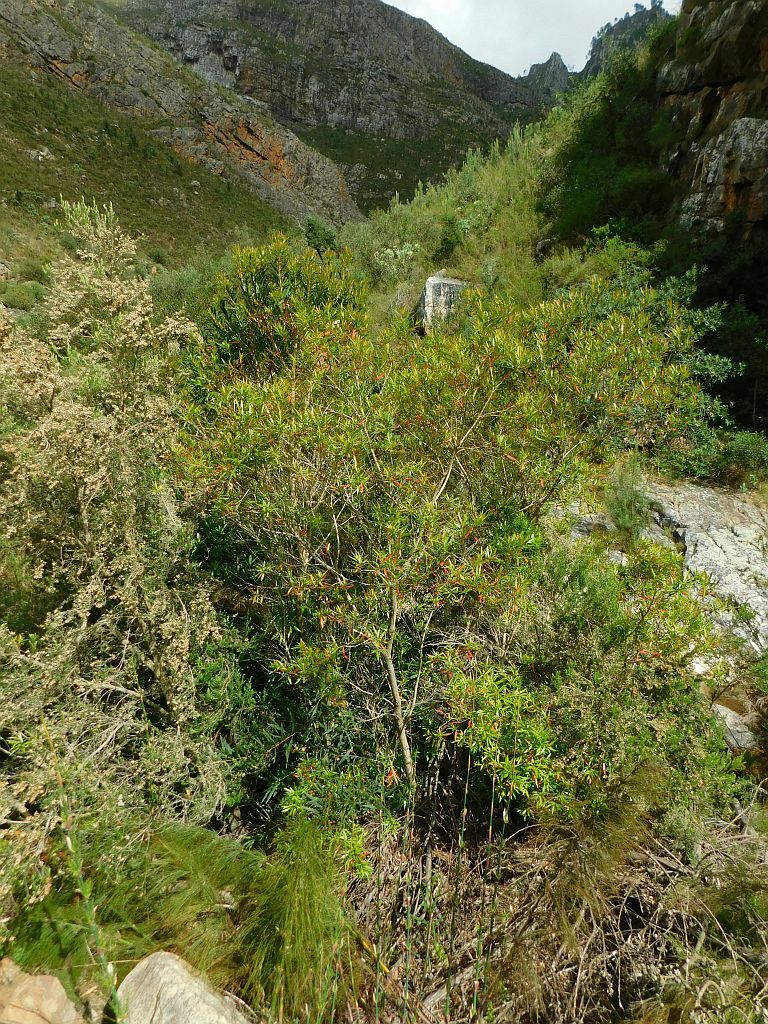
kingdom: Plantae
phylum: Tracheophyta
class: Magnoliopsida
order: Myrtales
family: Myrtaceae
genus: Callistemon
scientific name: Callistemon lanceolatus
